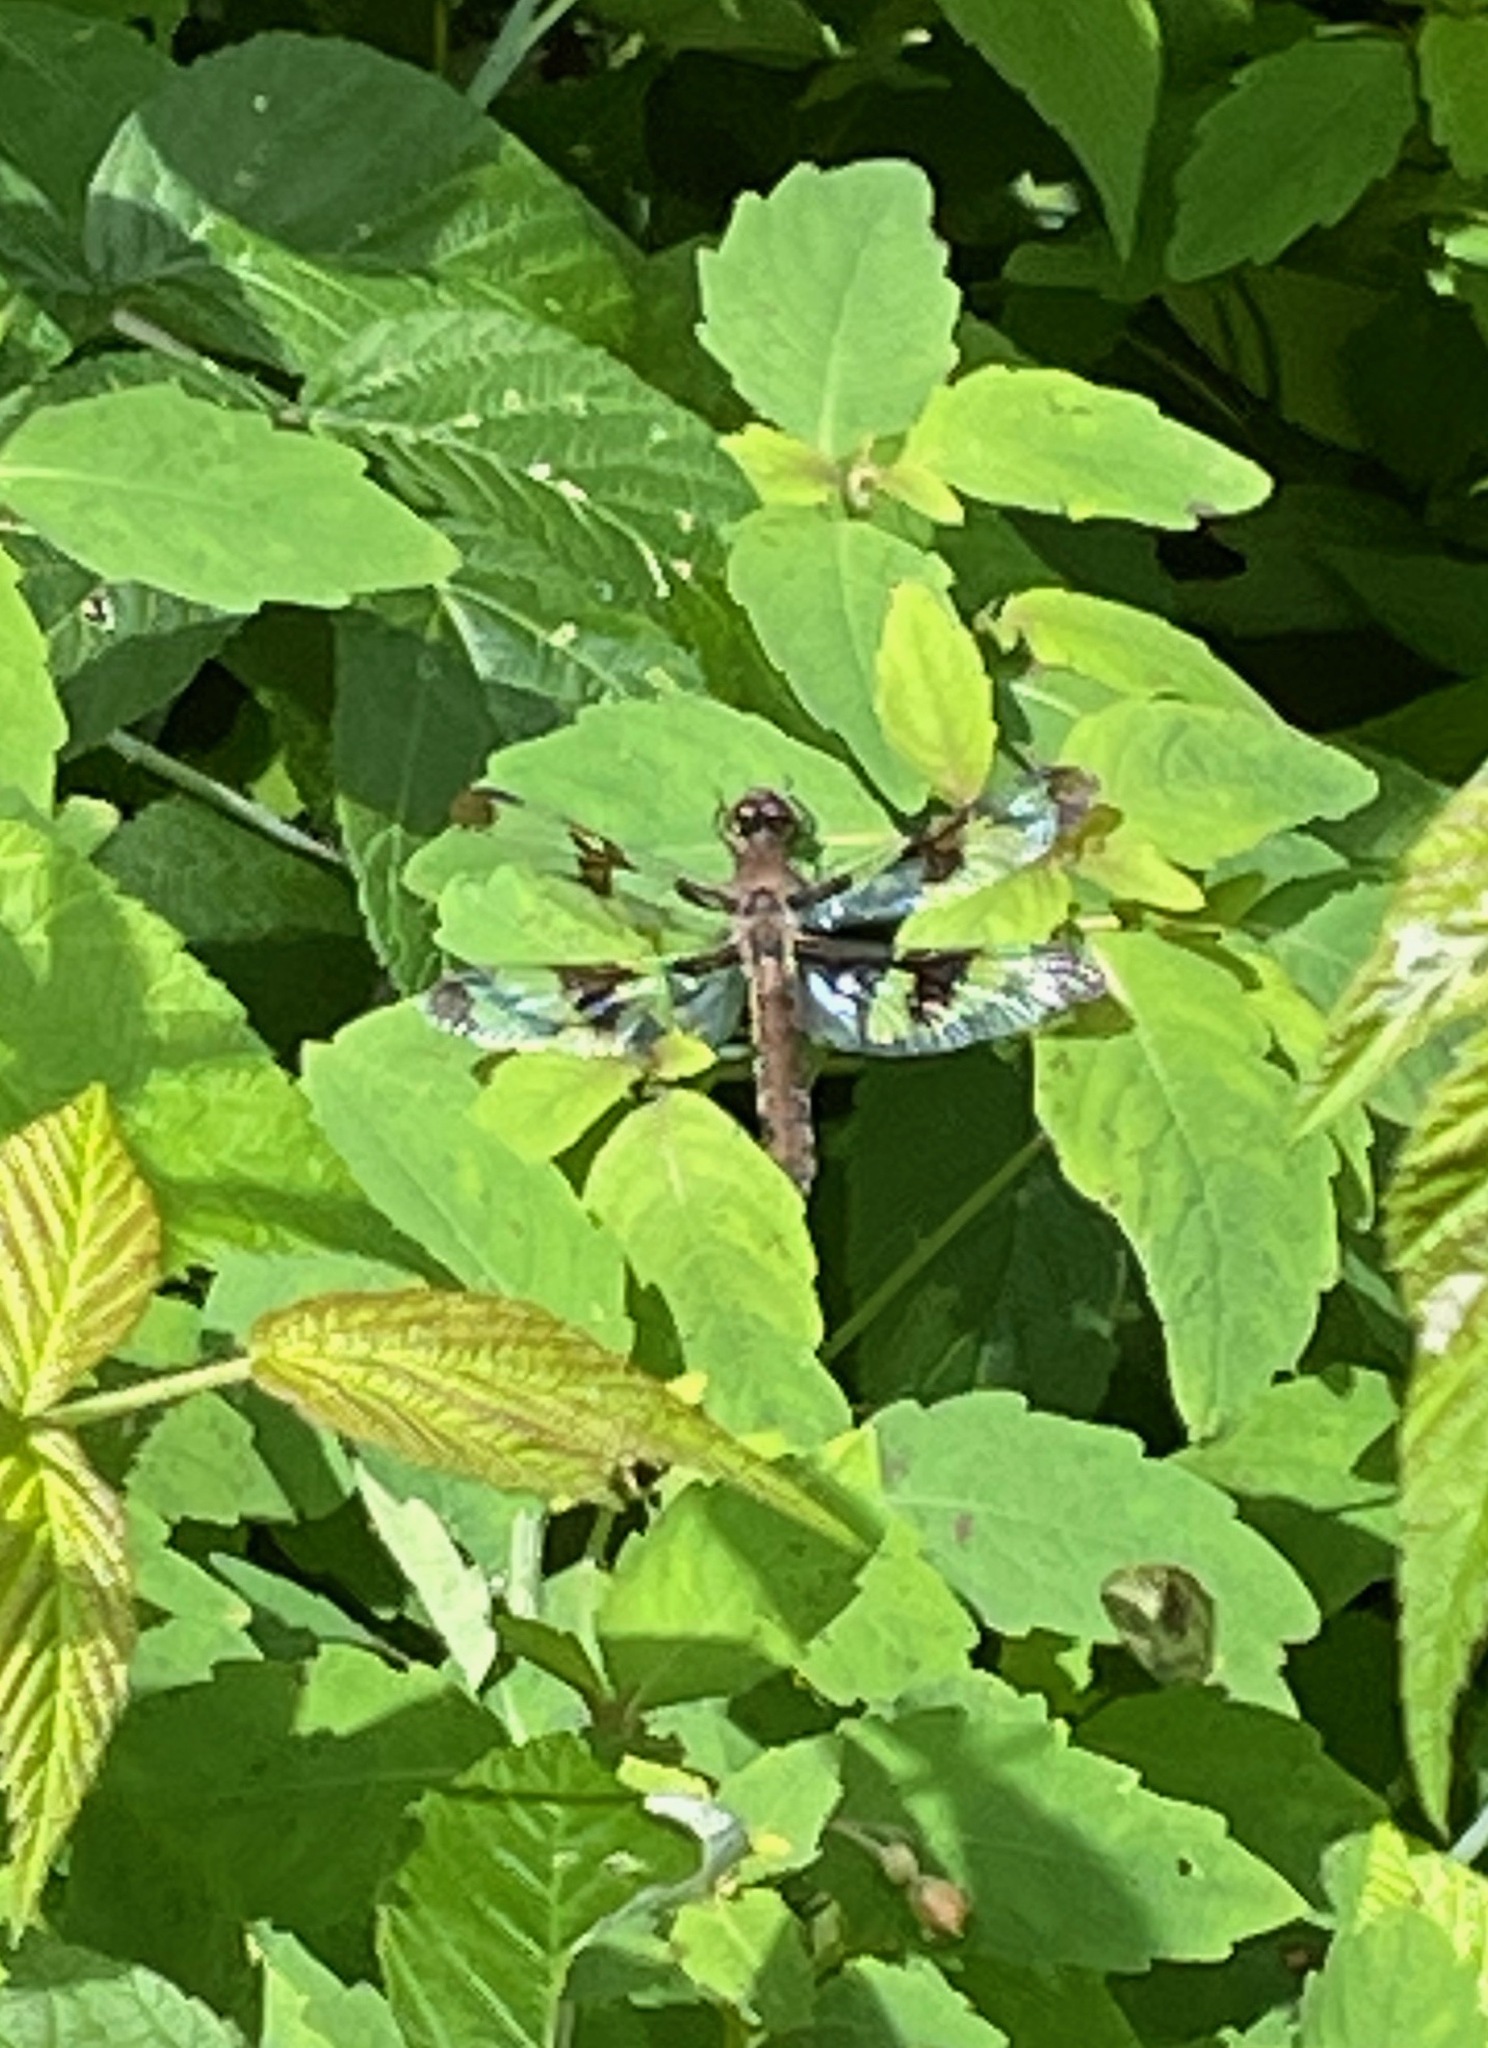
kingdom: Animalia
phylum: Arthropoda
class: Insecta
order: Odonata
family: Libellulidae
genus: Plathemis
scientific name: Plathemis lydia
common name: Common whitetail
